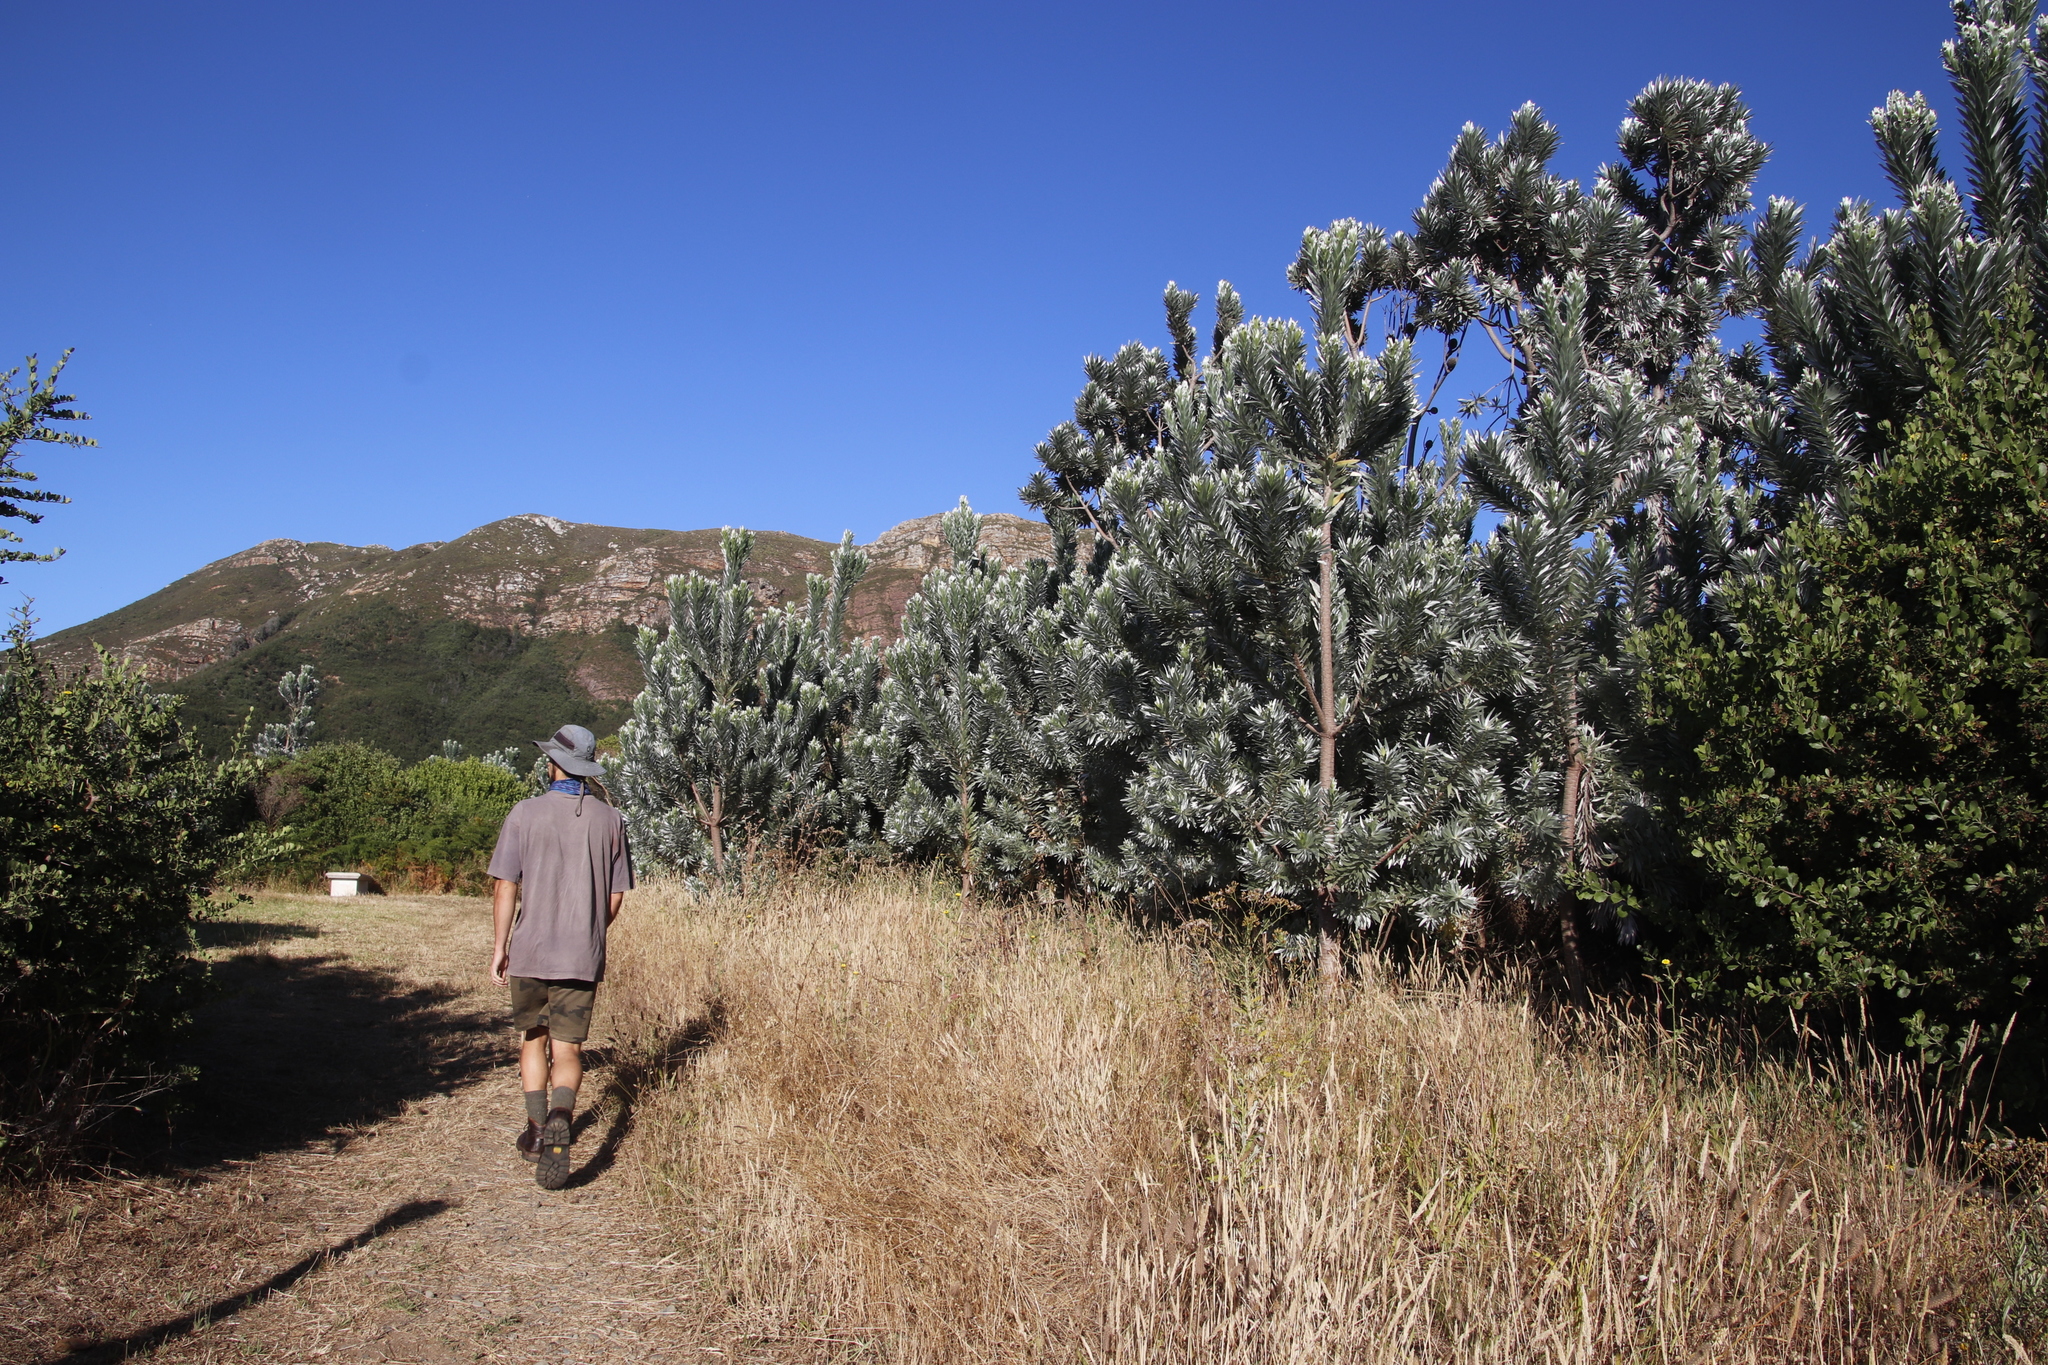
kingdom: Plantae
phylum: Tracheophyta
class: Magnoliopsida
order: Proteales
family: Proteaceae
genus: Leucadendron
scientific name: Leucadendron argenteum
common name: Cape silver tree
